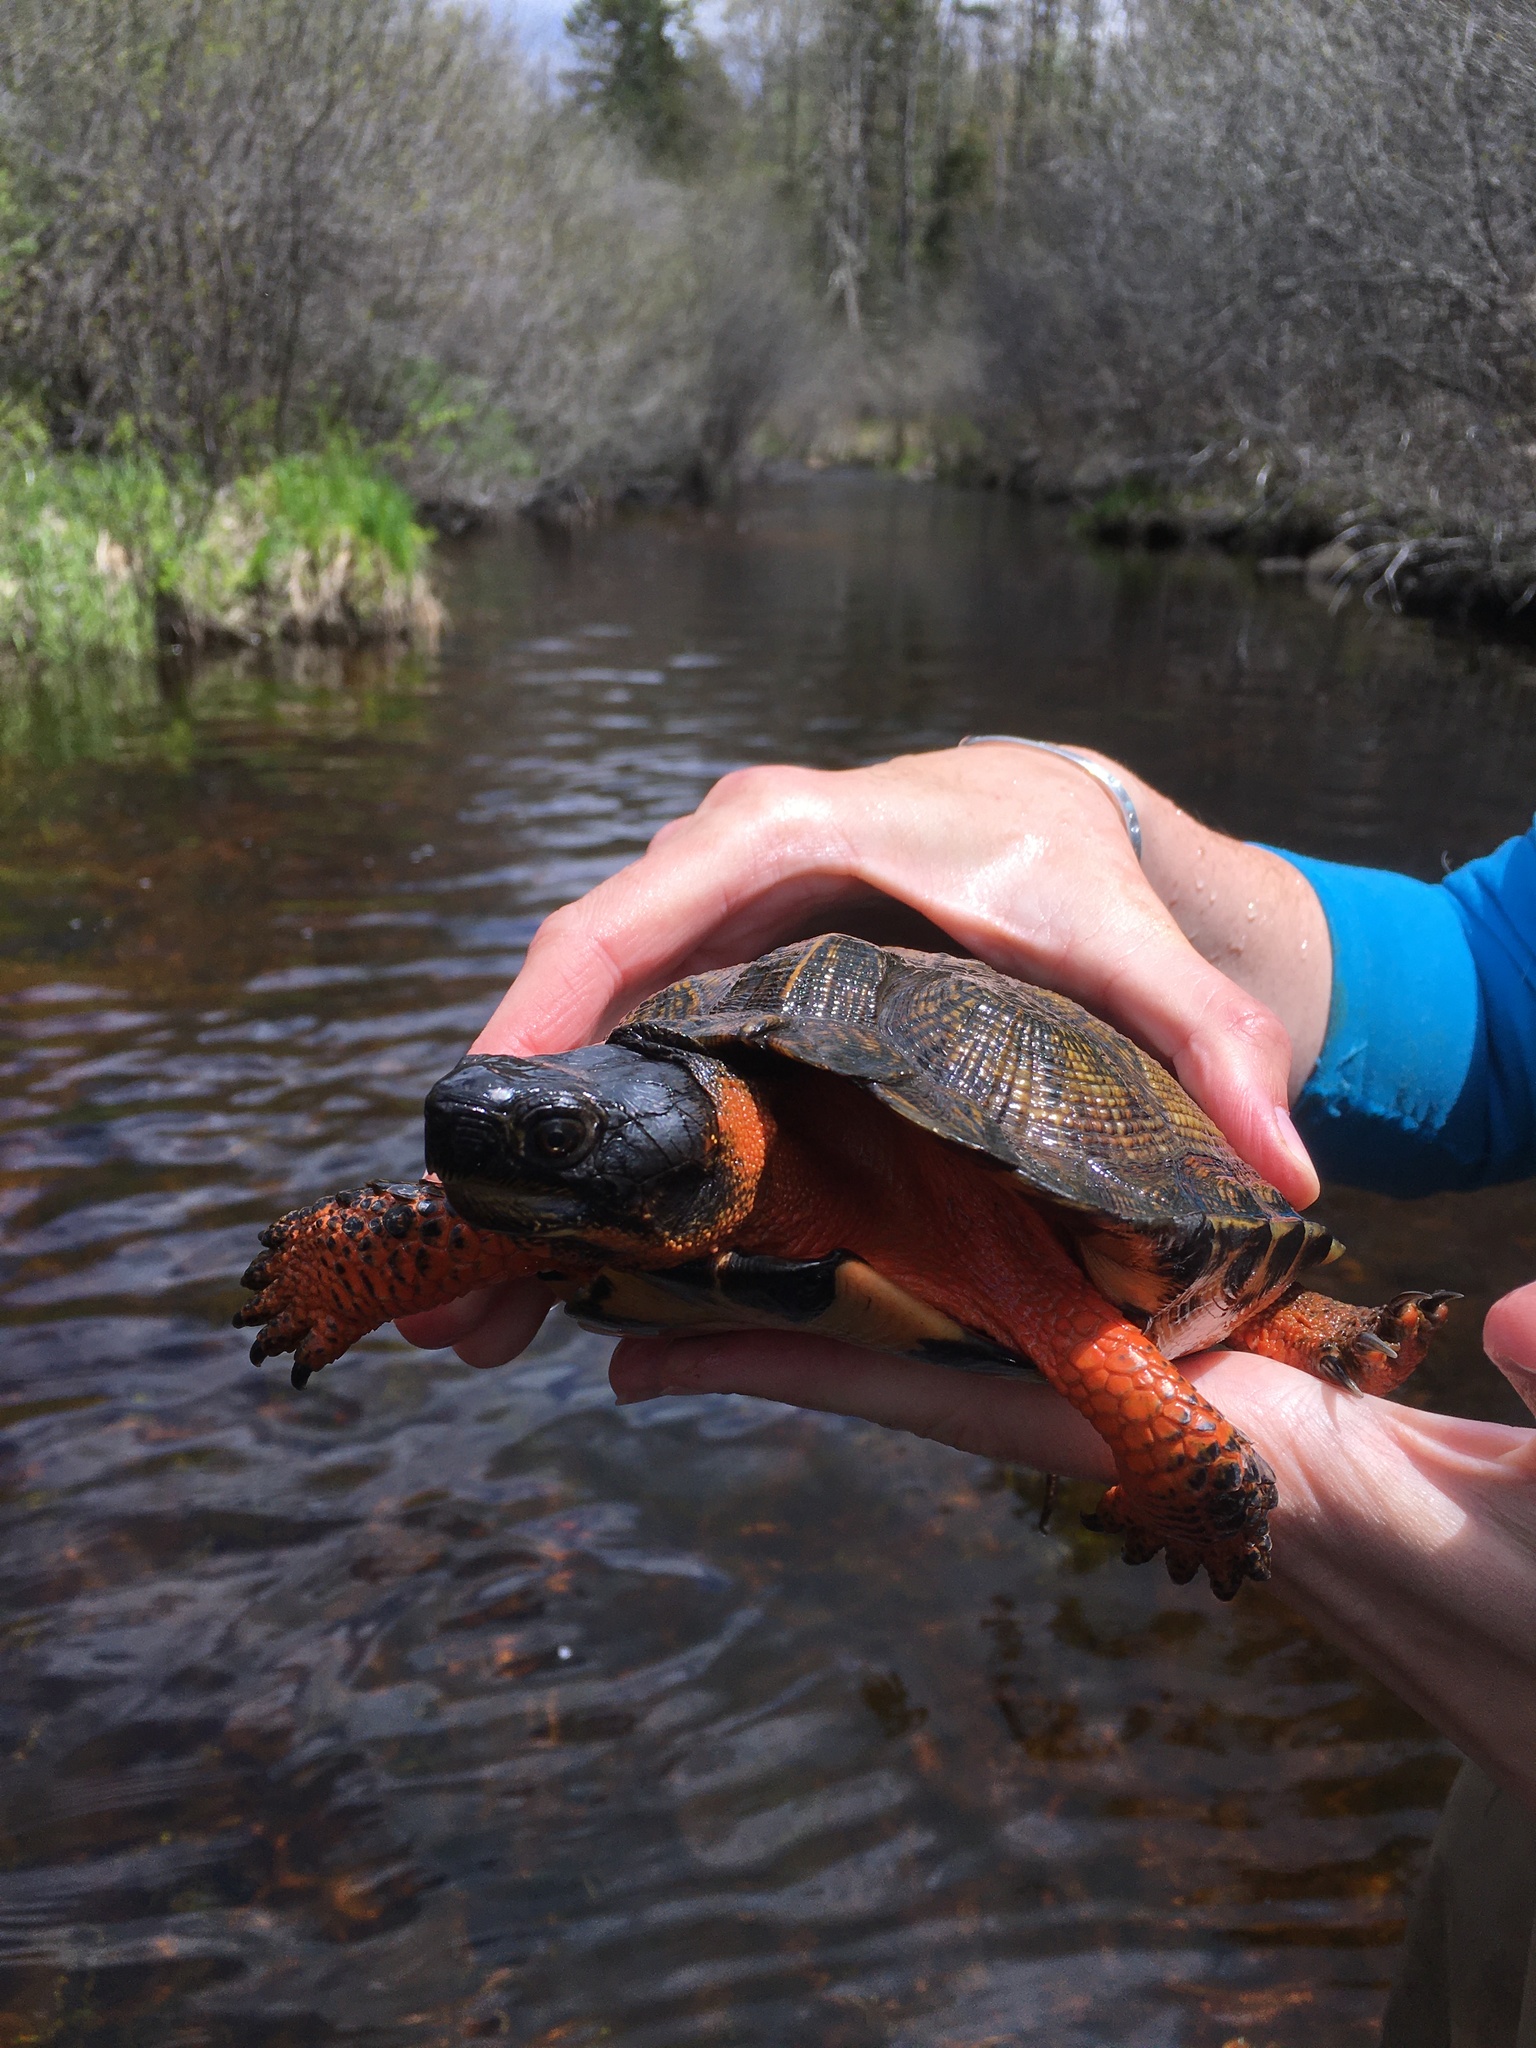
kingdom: Animalia
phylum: Chordata
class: Testudines
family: Emydidae
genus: Glyptemys
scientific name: Glyptemys insculpta
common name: Wood turtle
